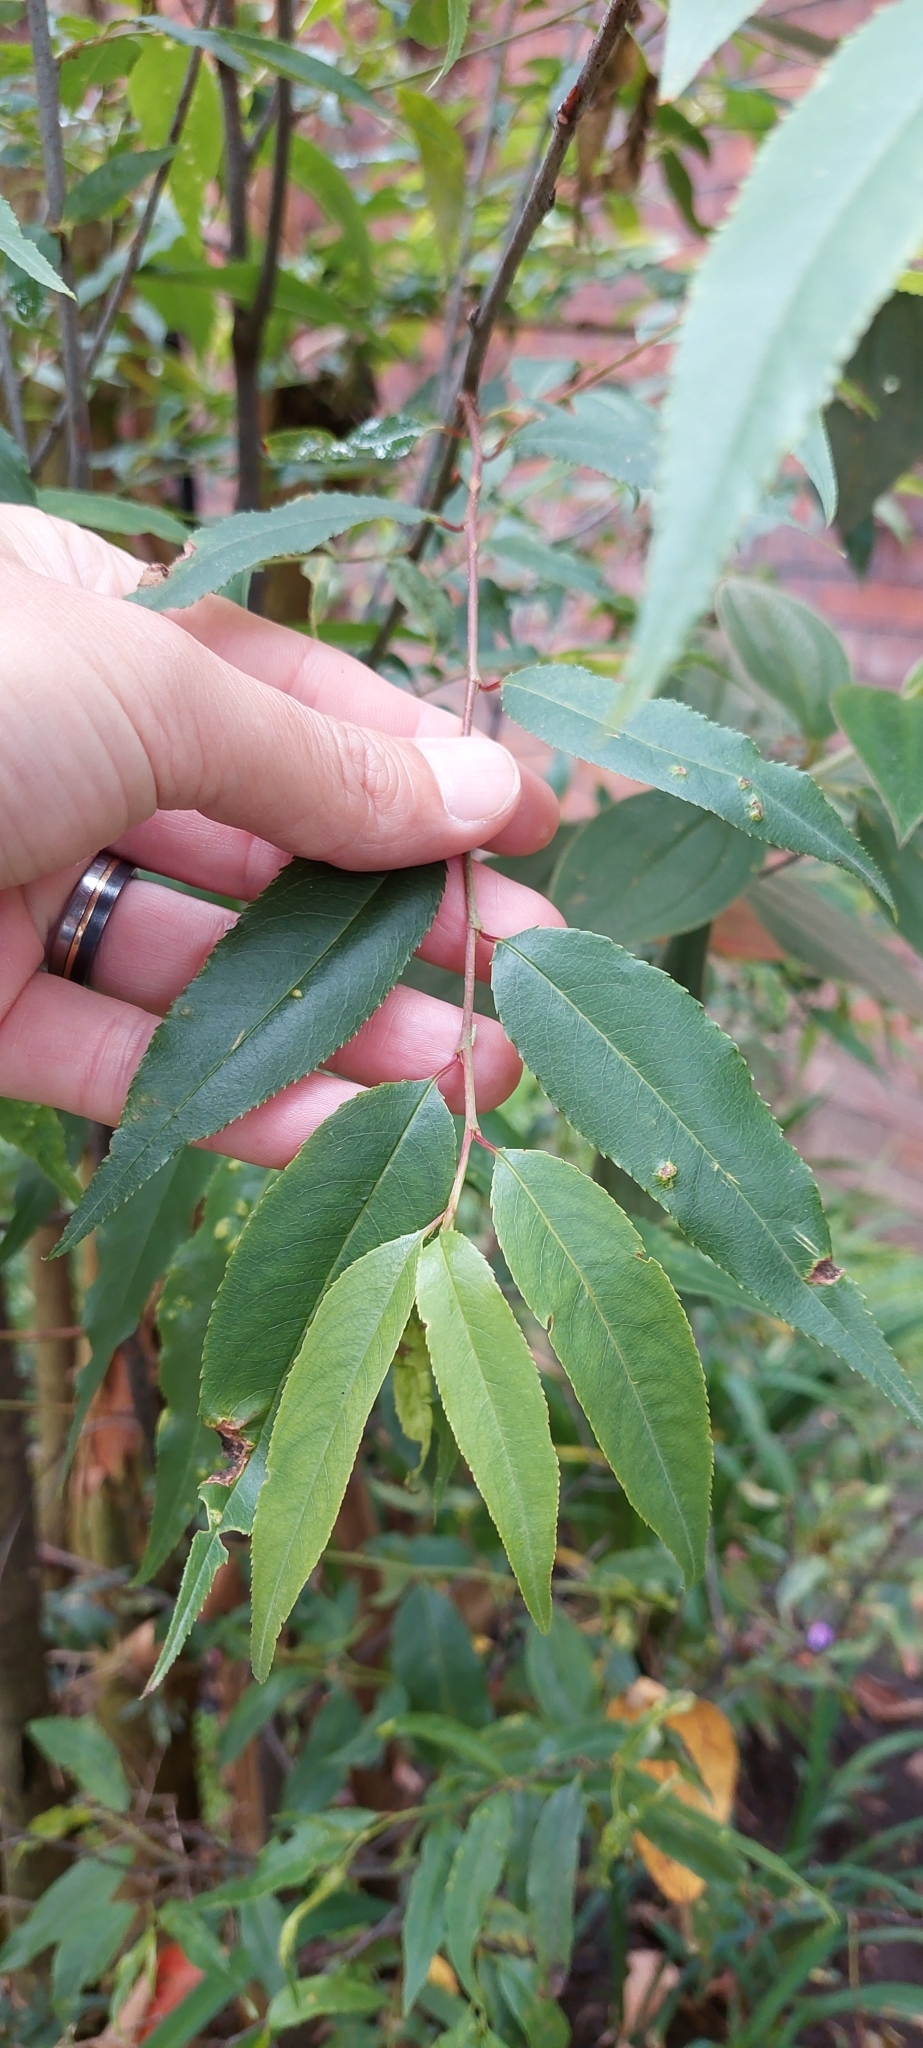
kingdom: Plantae
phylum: Tracheophyta
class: Magnoliopsida
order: Rosales
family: Rosaceae
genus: Prunus
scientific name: Prunus serotina
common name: Black cherry
